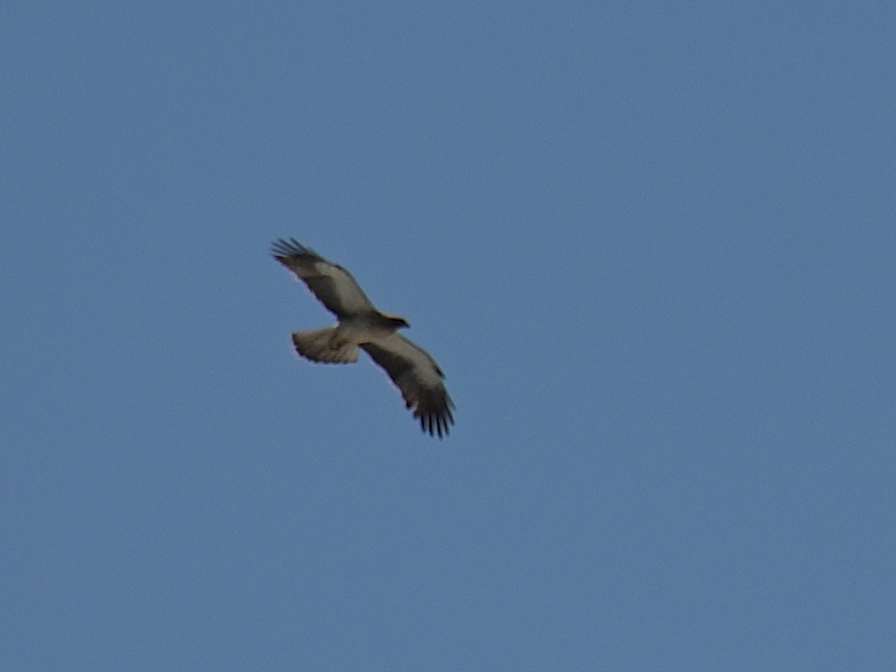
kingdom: Animalia
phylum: Chordata
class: Aves
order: Accipitriformes
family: Accipitridae
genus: Hieraaetus
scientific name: Hieraaetus pennatus
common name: Booted eagle
